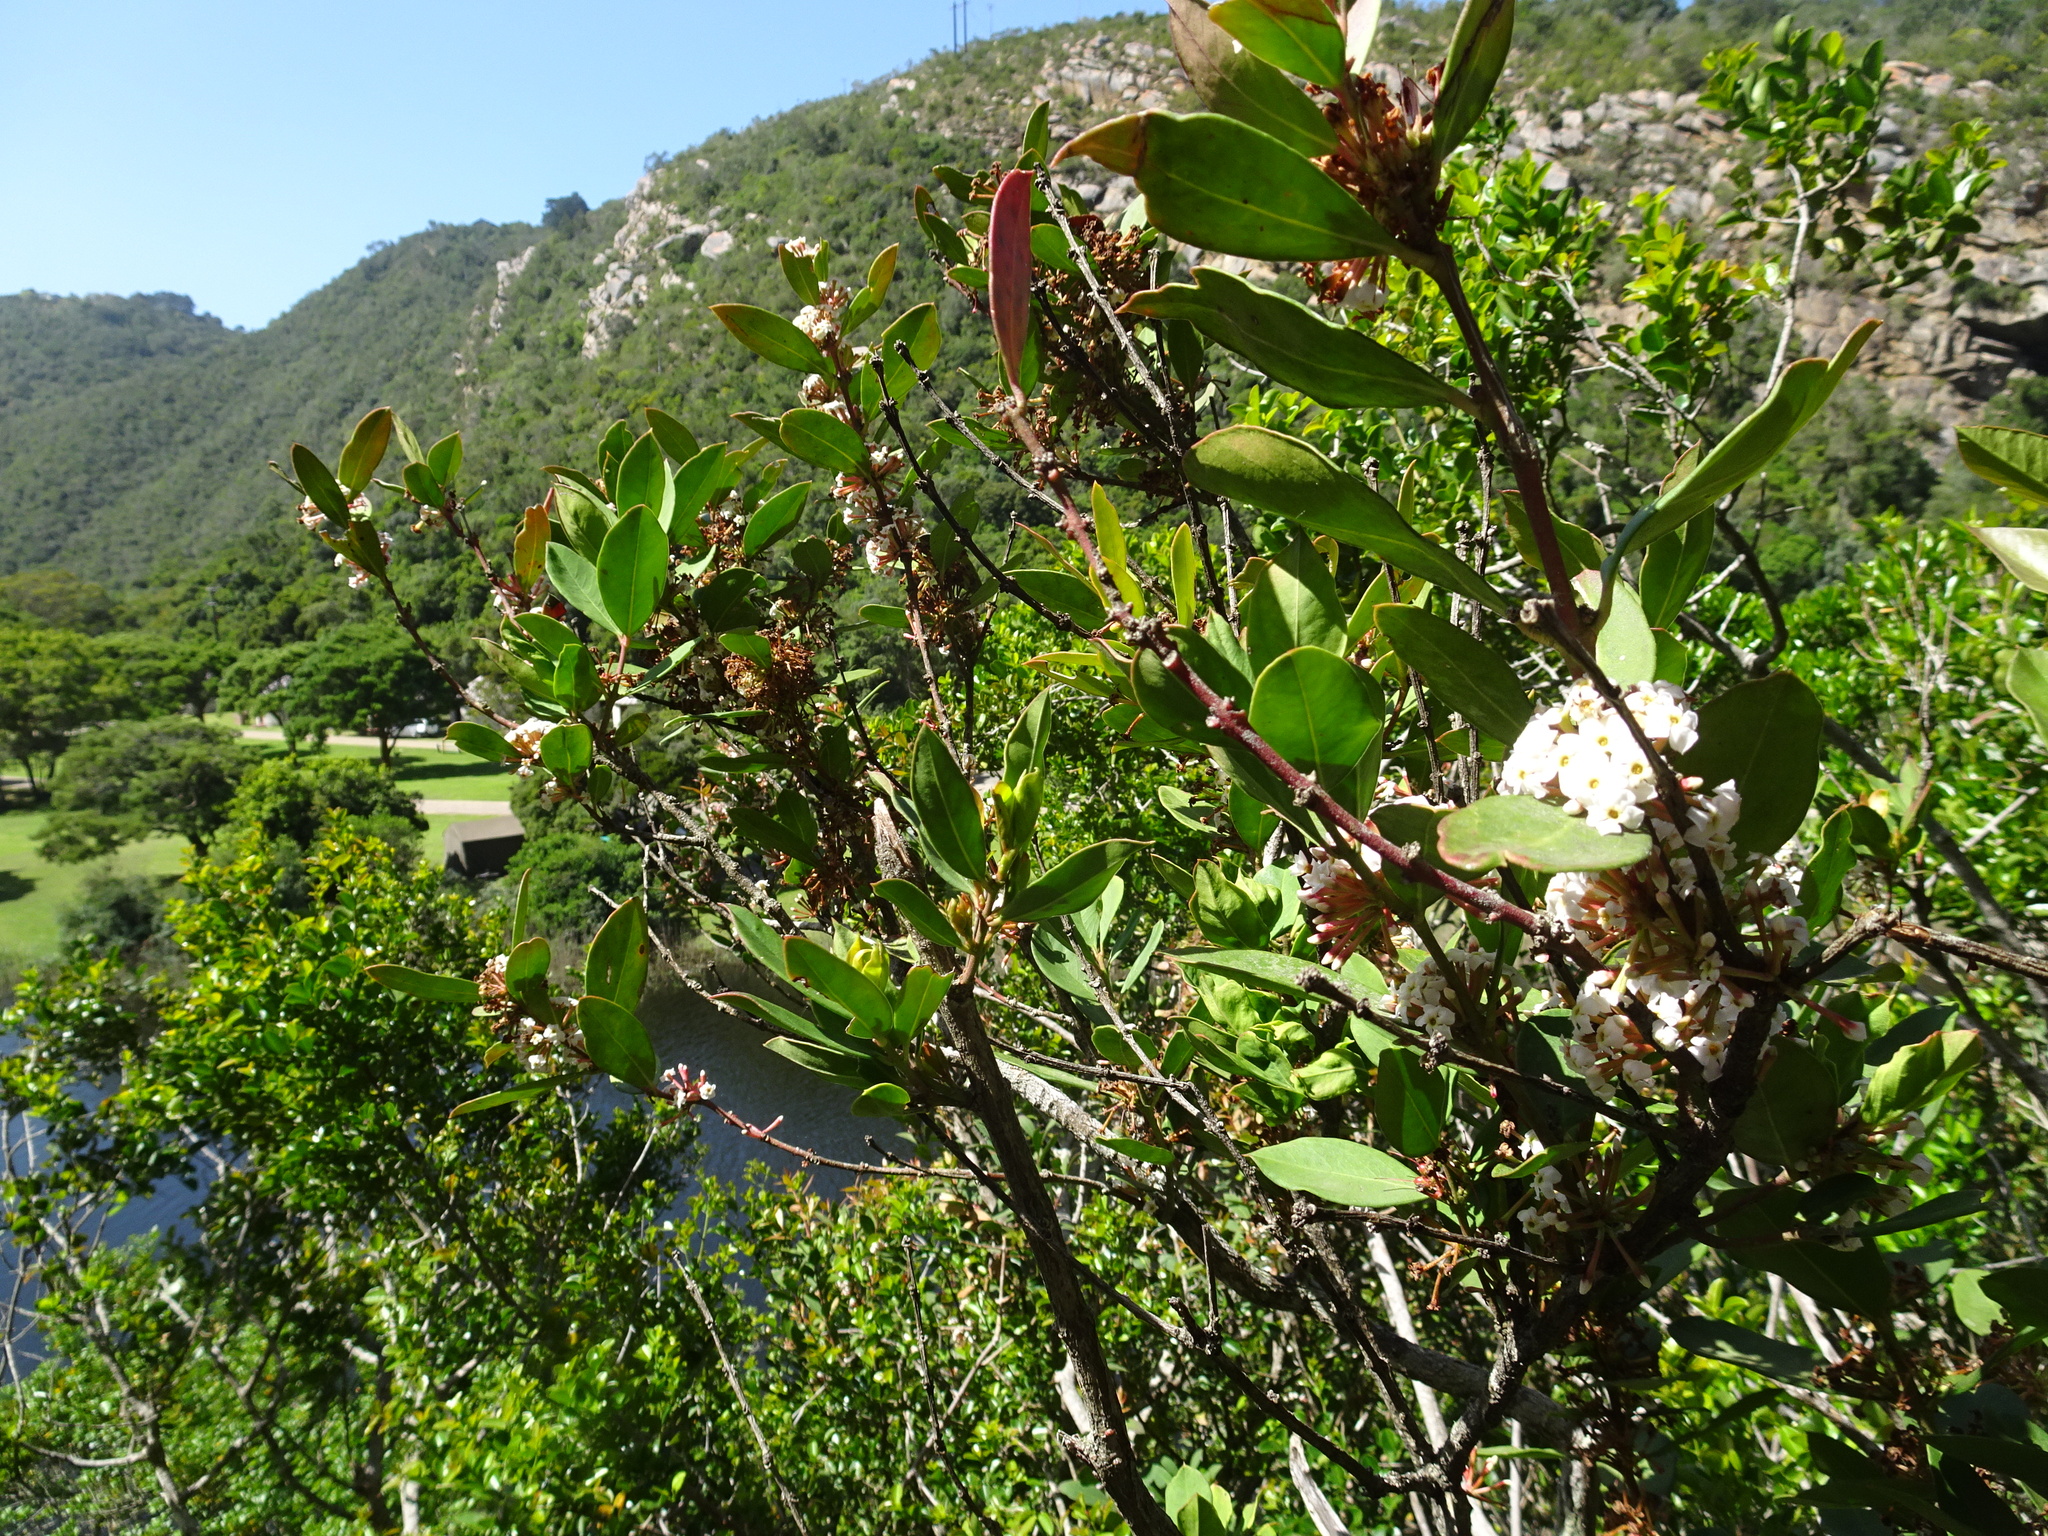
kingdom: Plantae
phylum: Tracheophyta
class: Magnoliopsida
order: Gentianales
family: Apocynaceae
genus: Acokanthera
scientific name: Acokanthera oppositifolia
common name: Bushman's-poison
